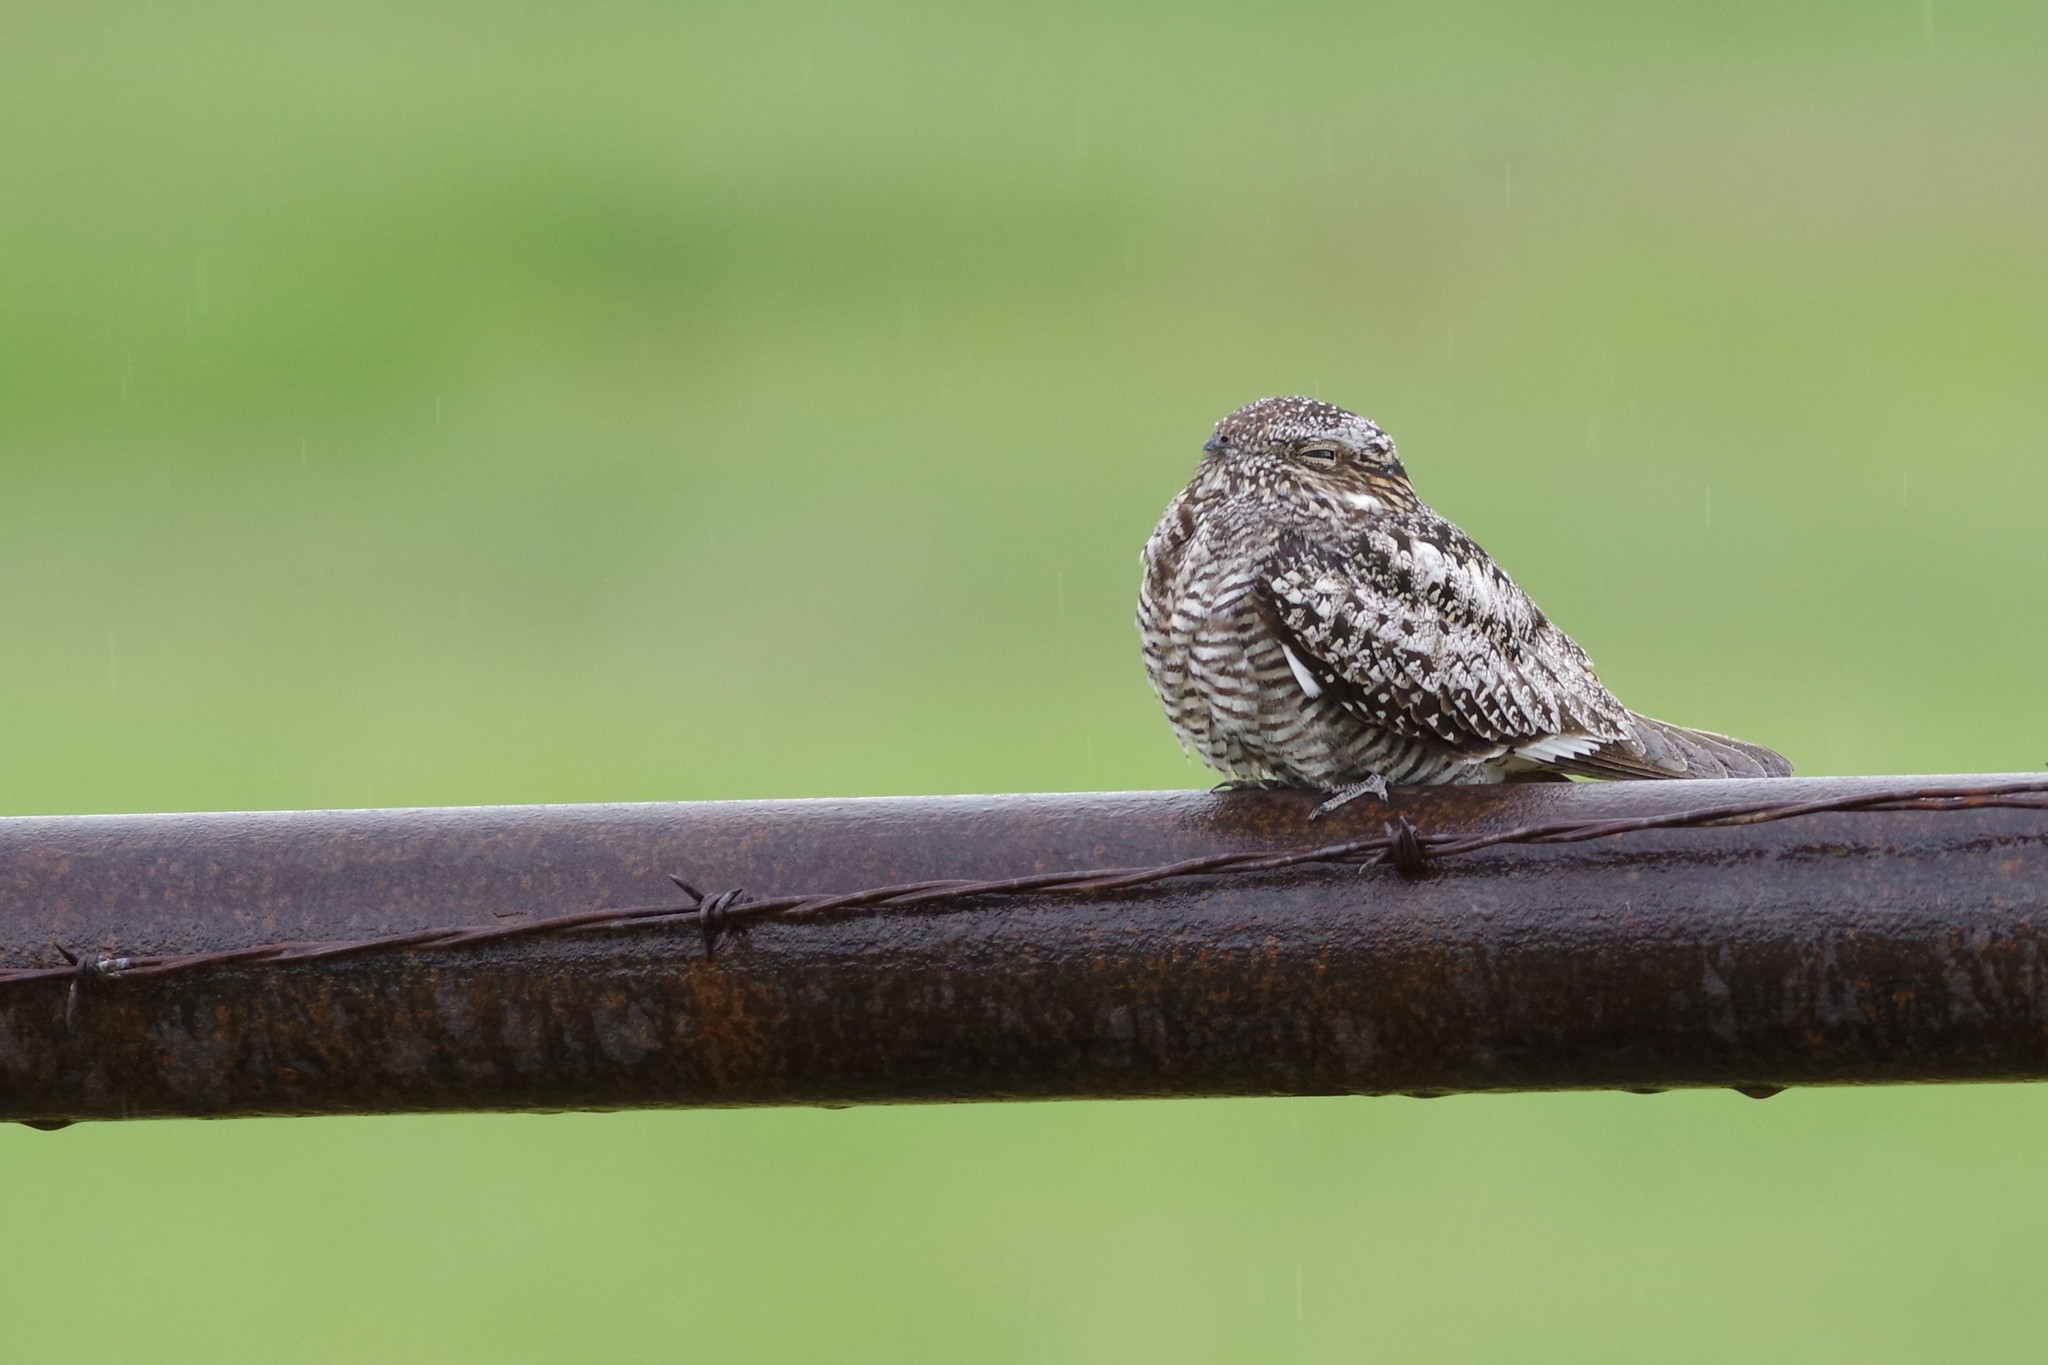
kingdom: Animalia
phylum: Chordata
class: Aves
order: Caprimulgiformes
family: Caprimulgidae
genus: Chordeiles
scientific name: Chordeiles minor
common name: Common nighthawk
